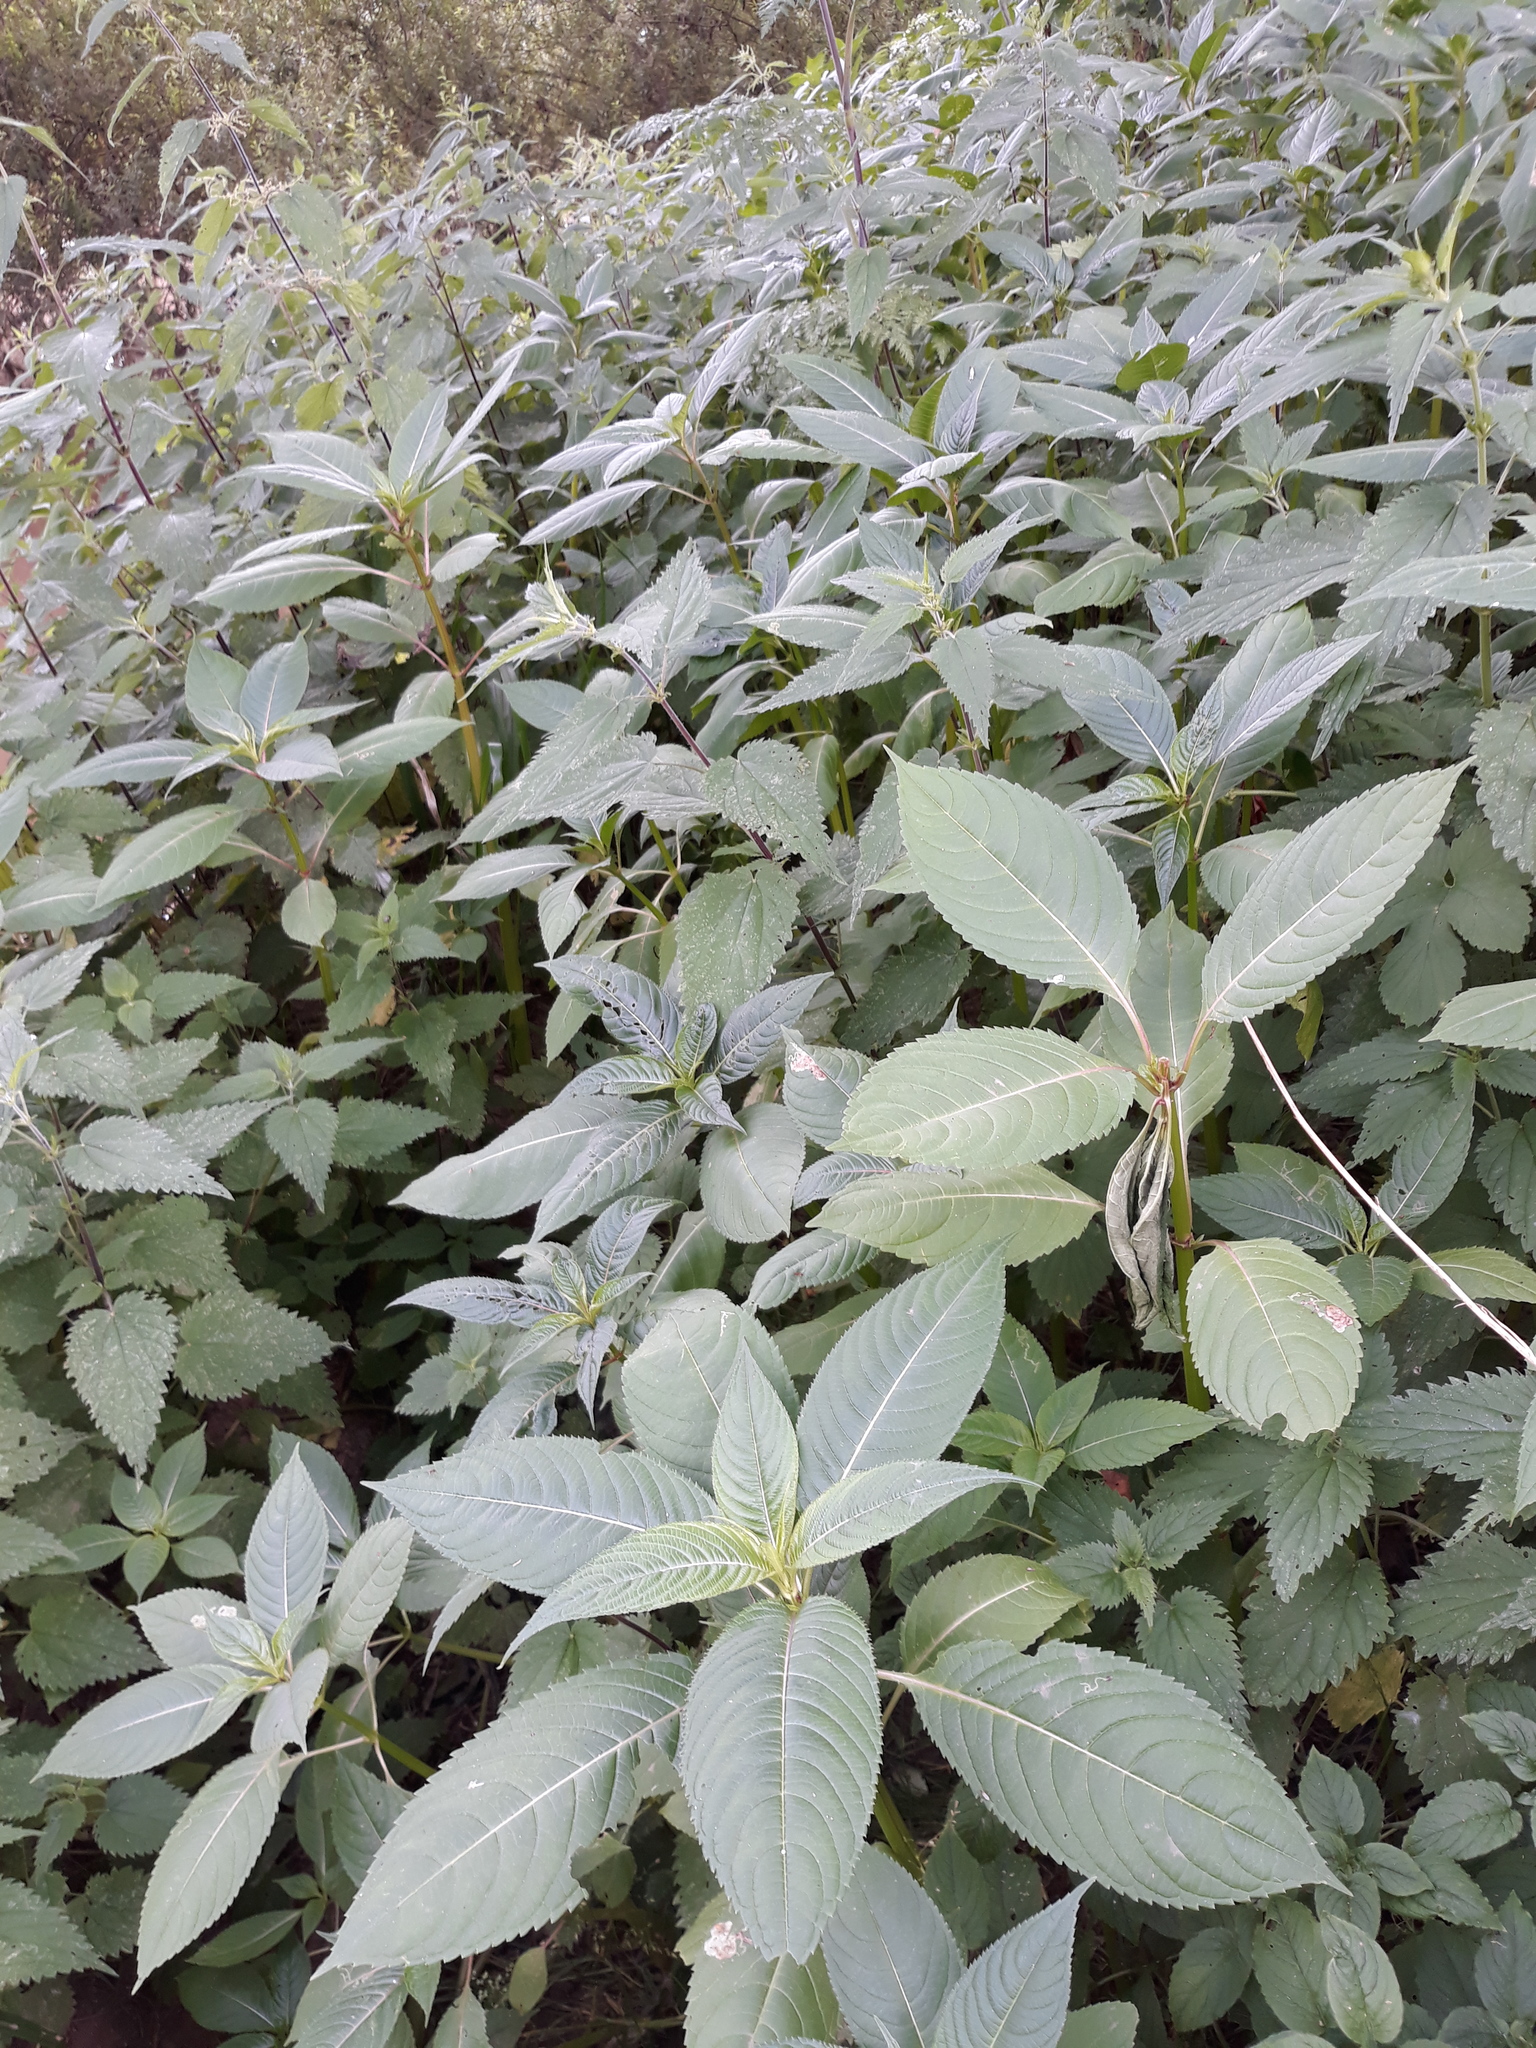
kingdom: Plantae
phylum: Tracheophyta
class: Magnoliopsida
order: Ericales
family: Balsaminaceae
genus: Impatiens
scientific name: Impatiens glandulifera
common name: Himalayan balsam
